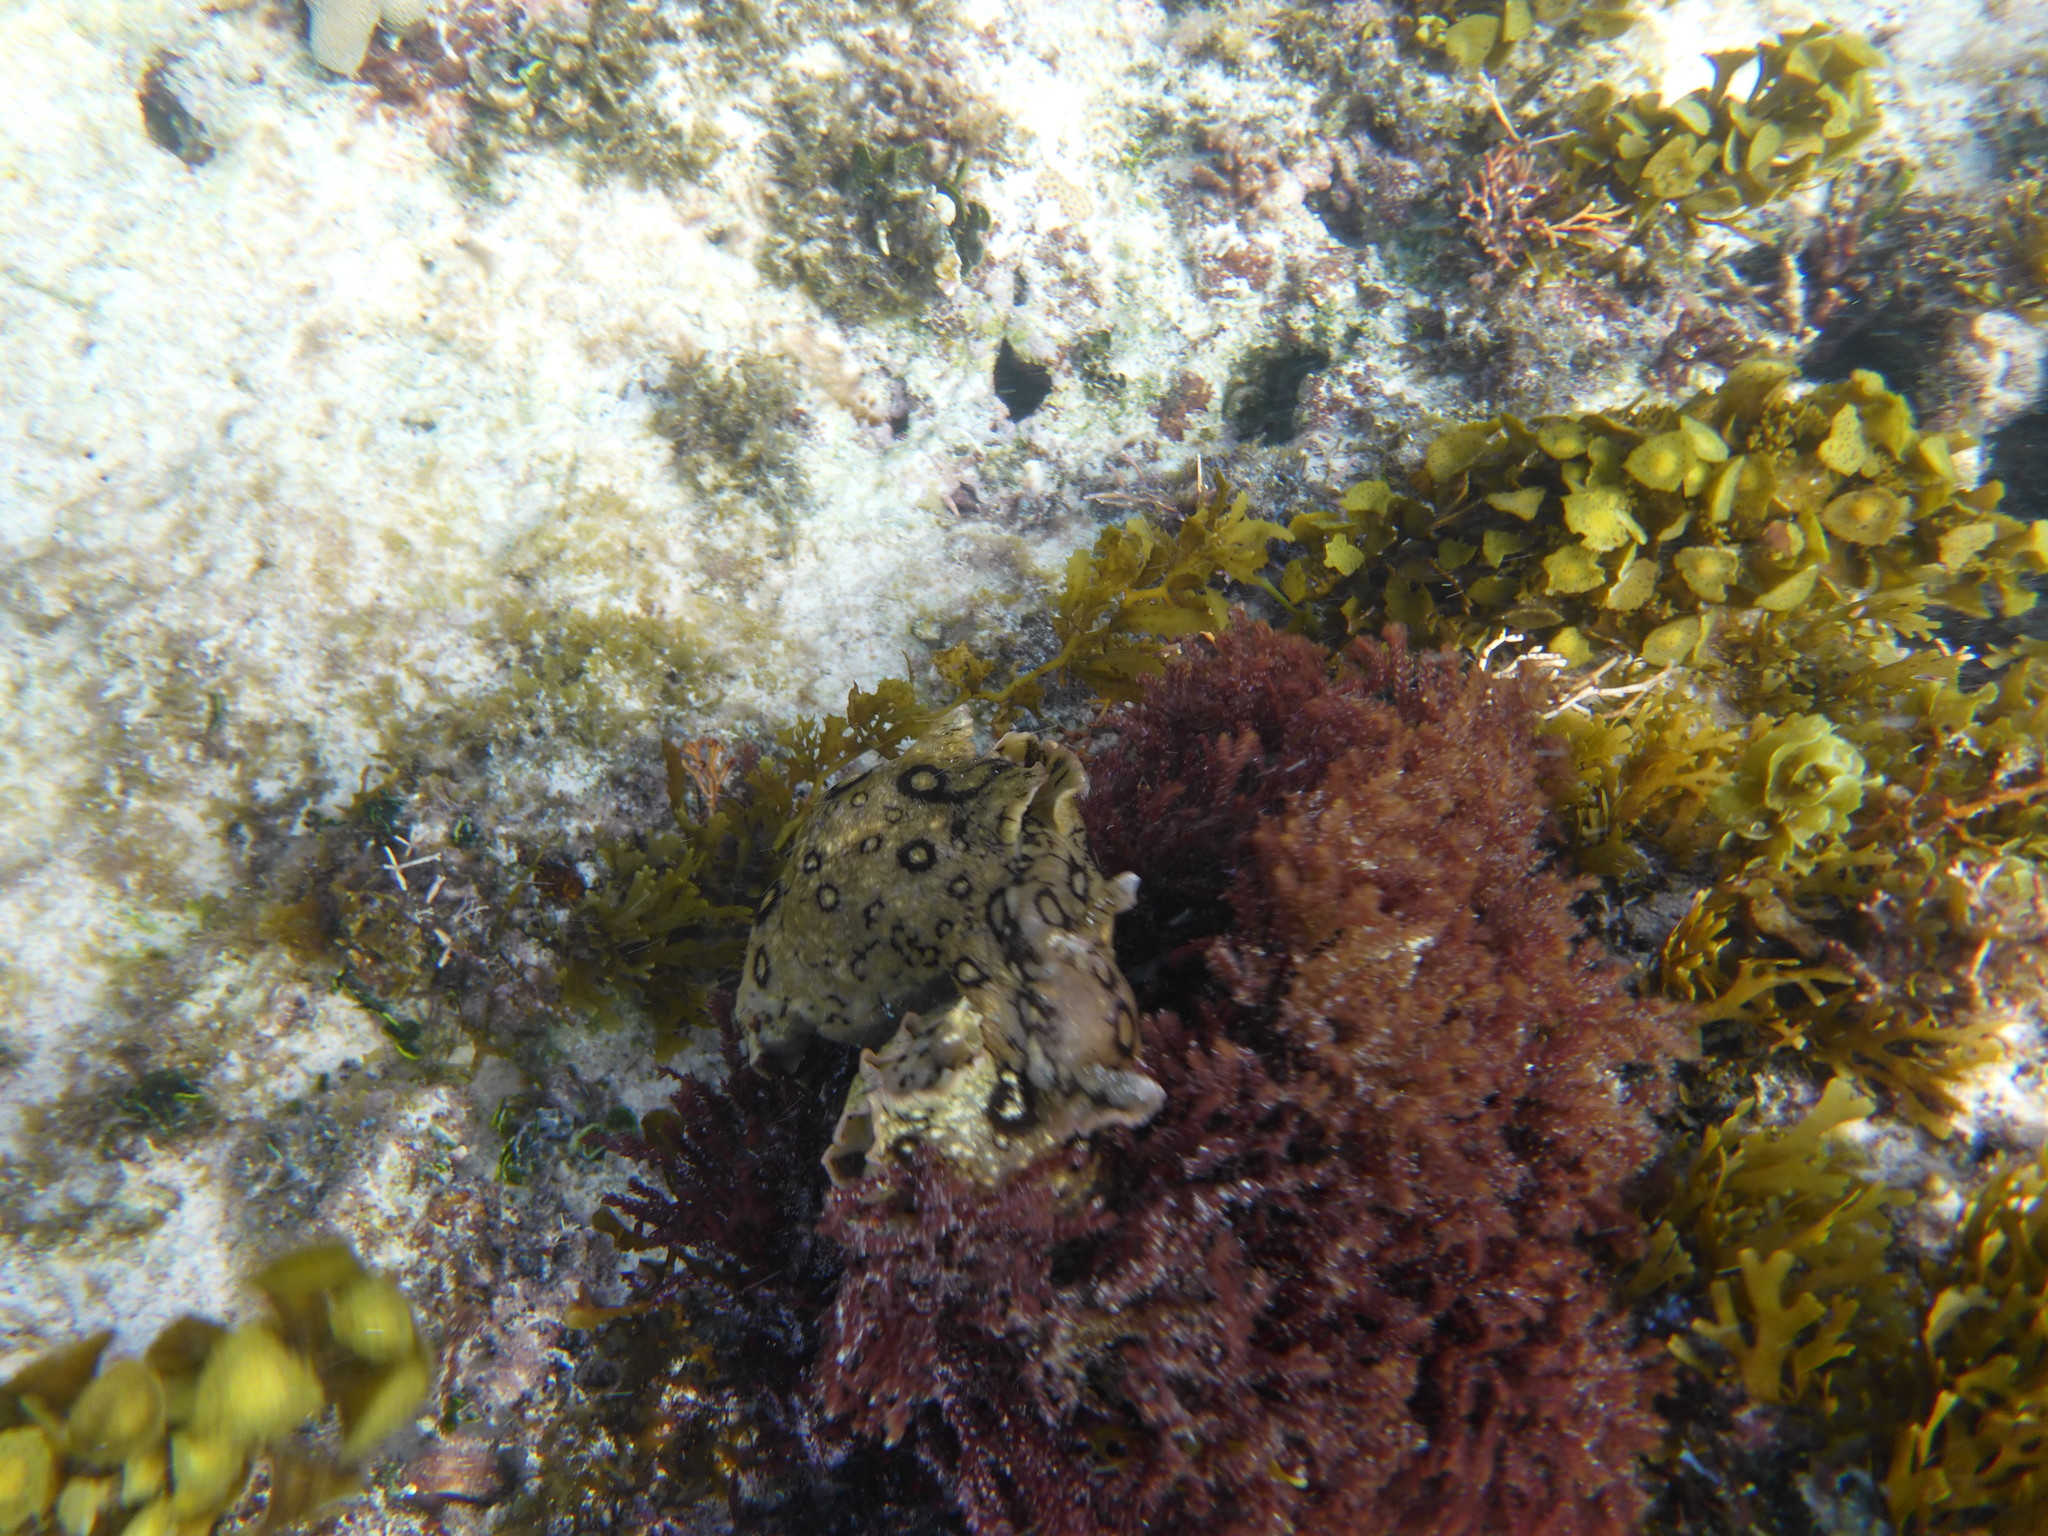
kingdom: Animalia
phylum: Mollusca
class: Gastropoda
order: Aplysiida
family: Aplysiidae
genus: Aplysia
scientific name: Aplysia dactylomela
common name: Large-spotted sea hare
